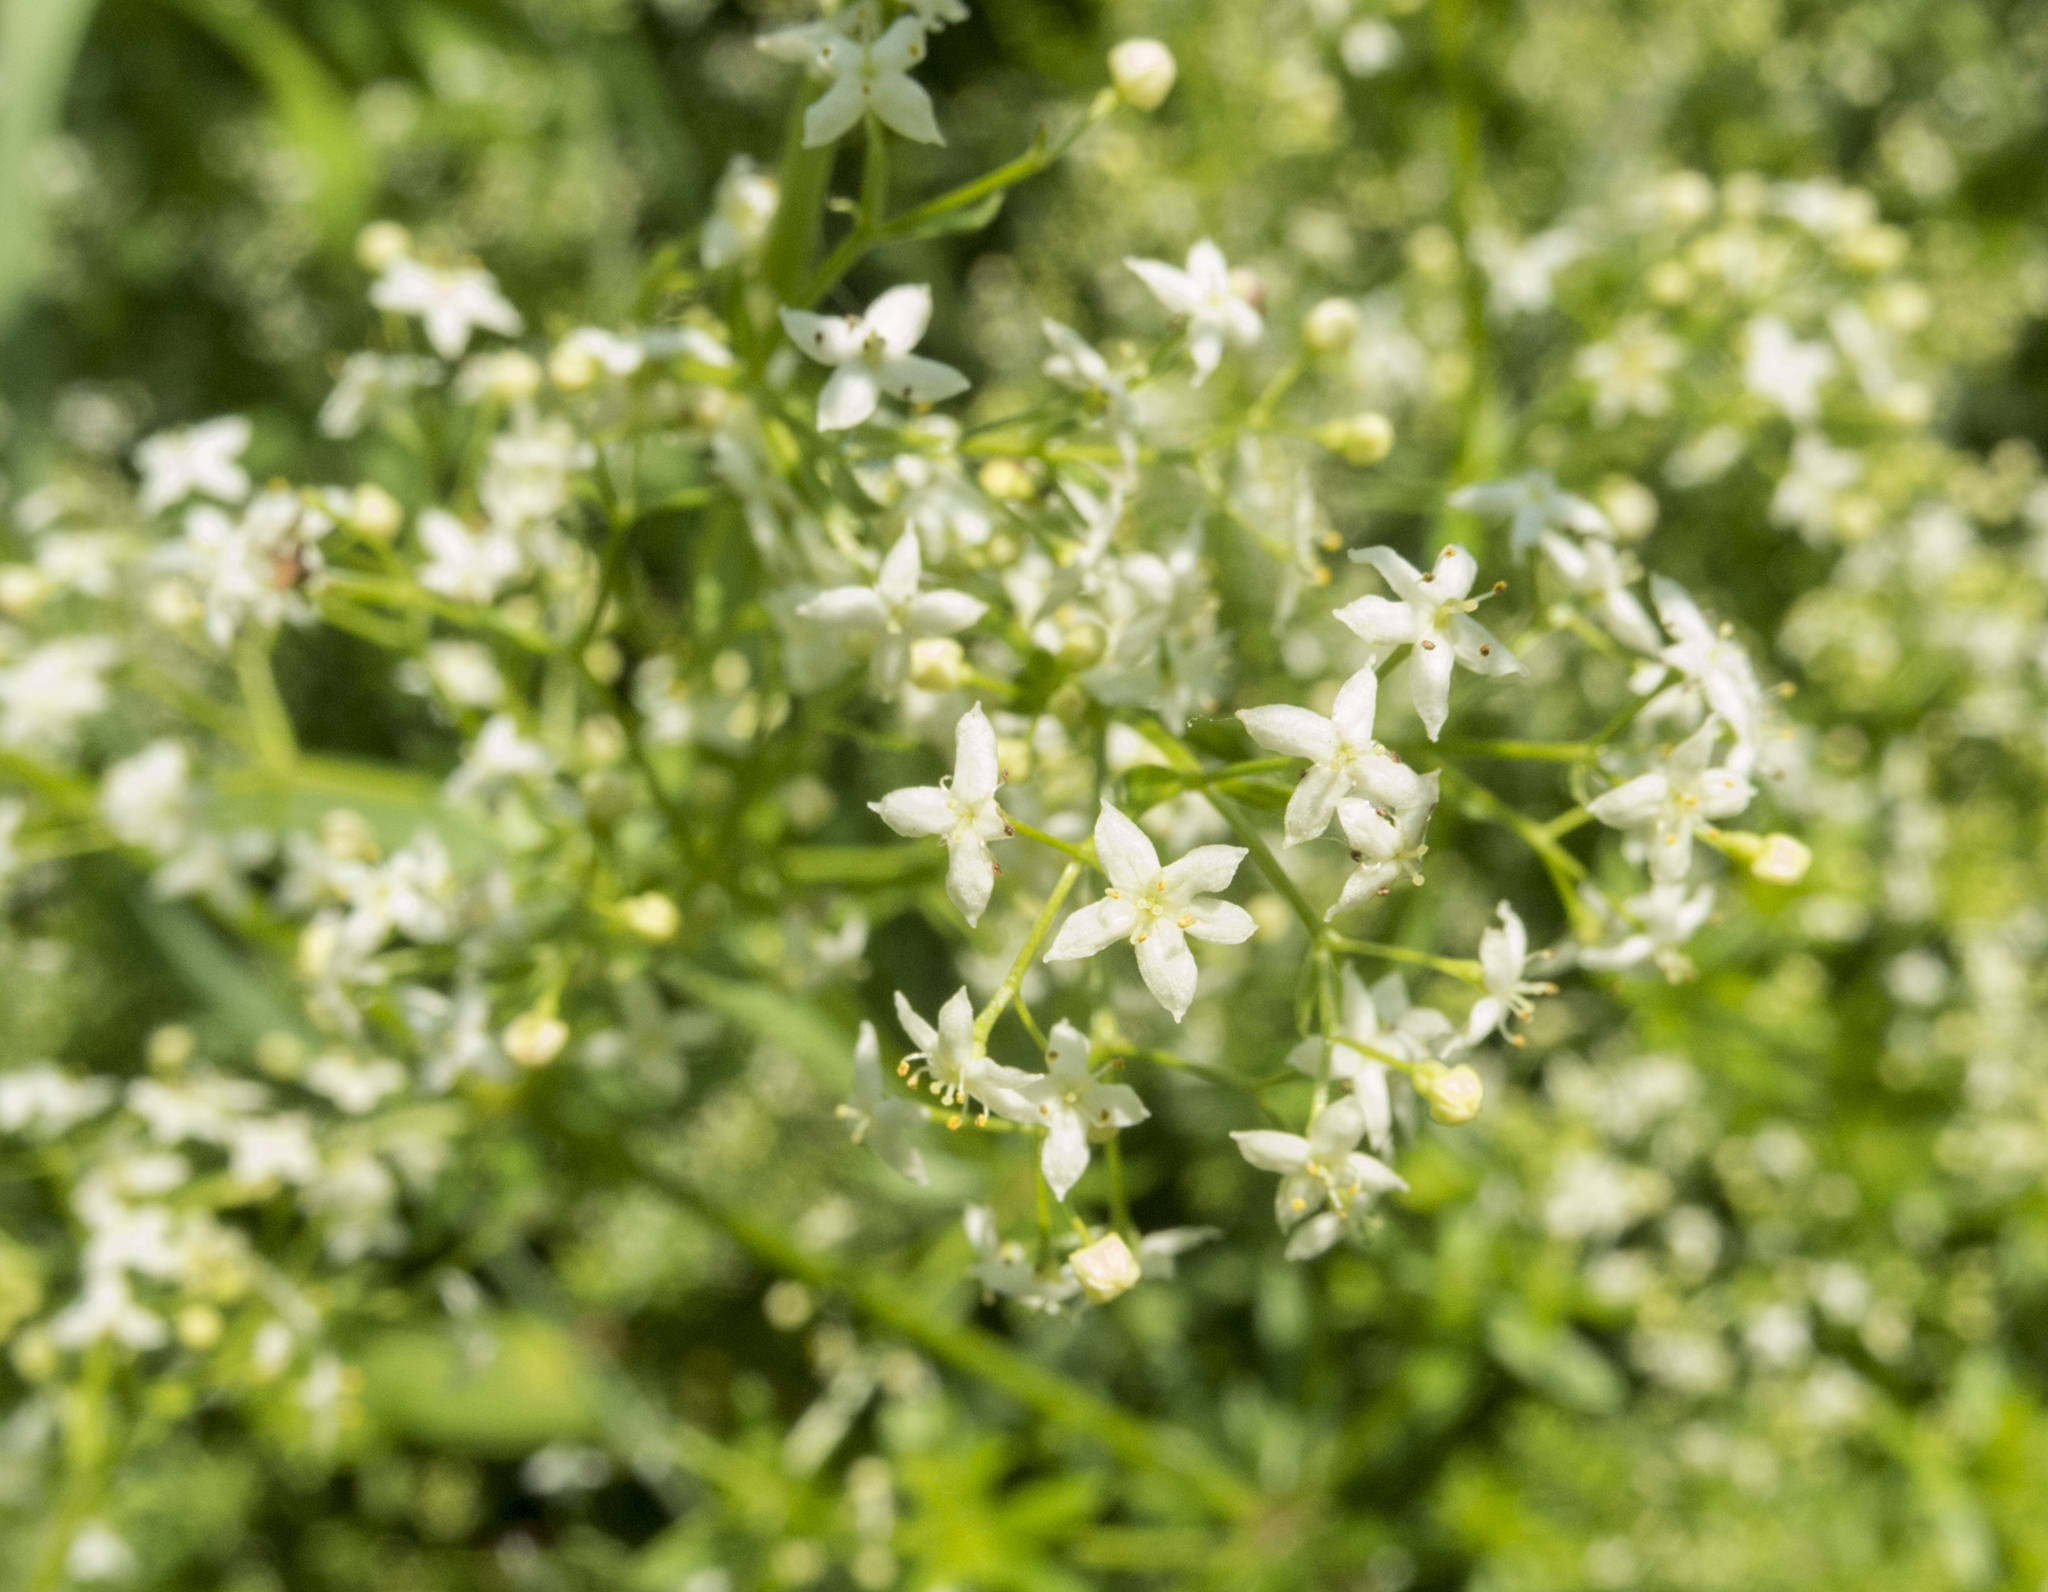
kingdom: Plantae
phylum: Tracheophyta
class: Magnoliopsida
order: Gentianales
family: Rubiaceae
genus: Galium
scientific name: Galium mollugo
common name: Hedge bedstraw
